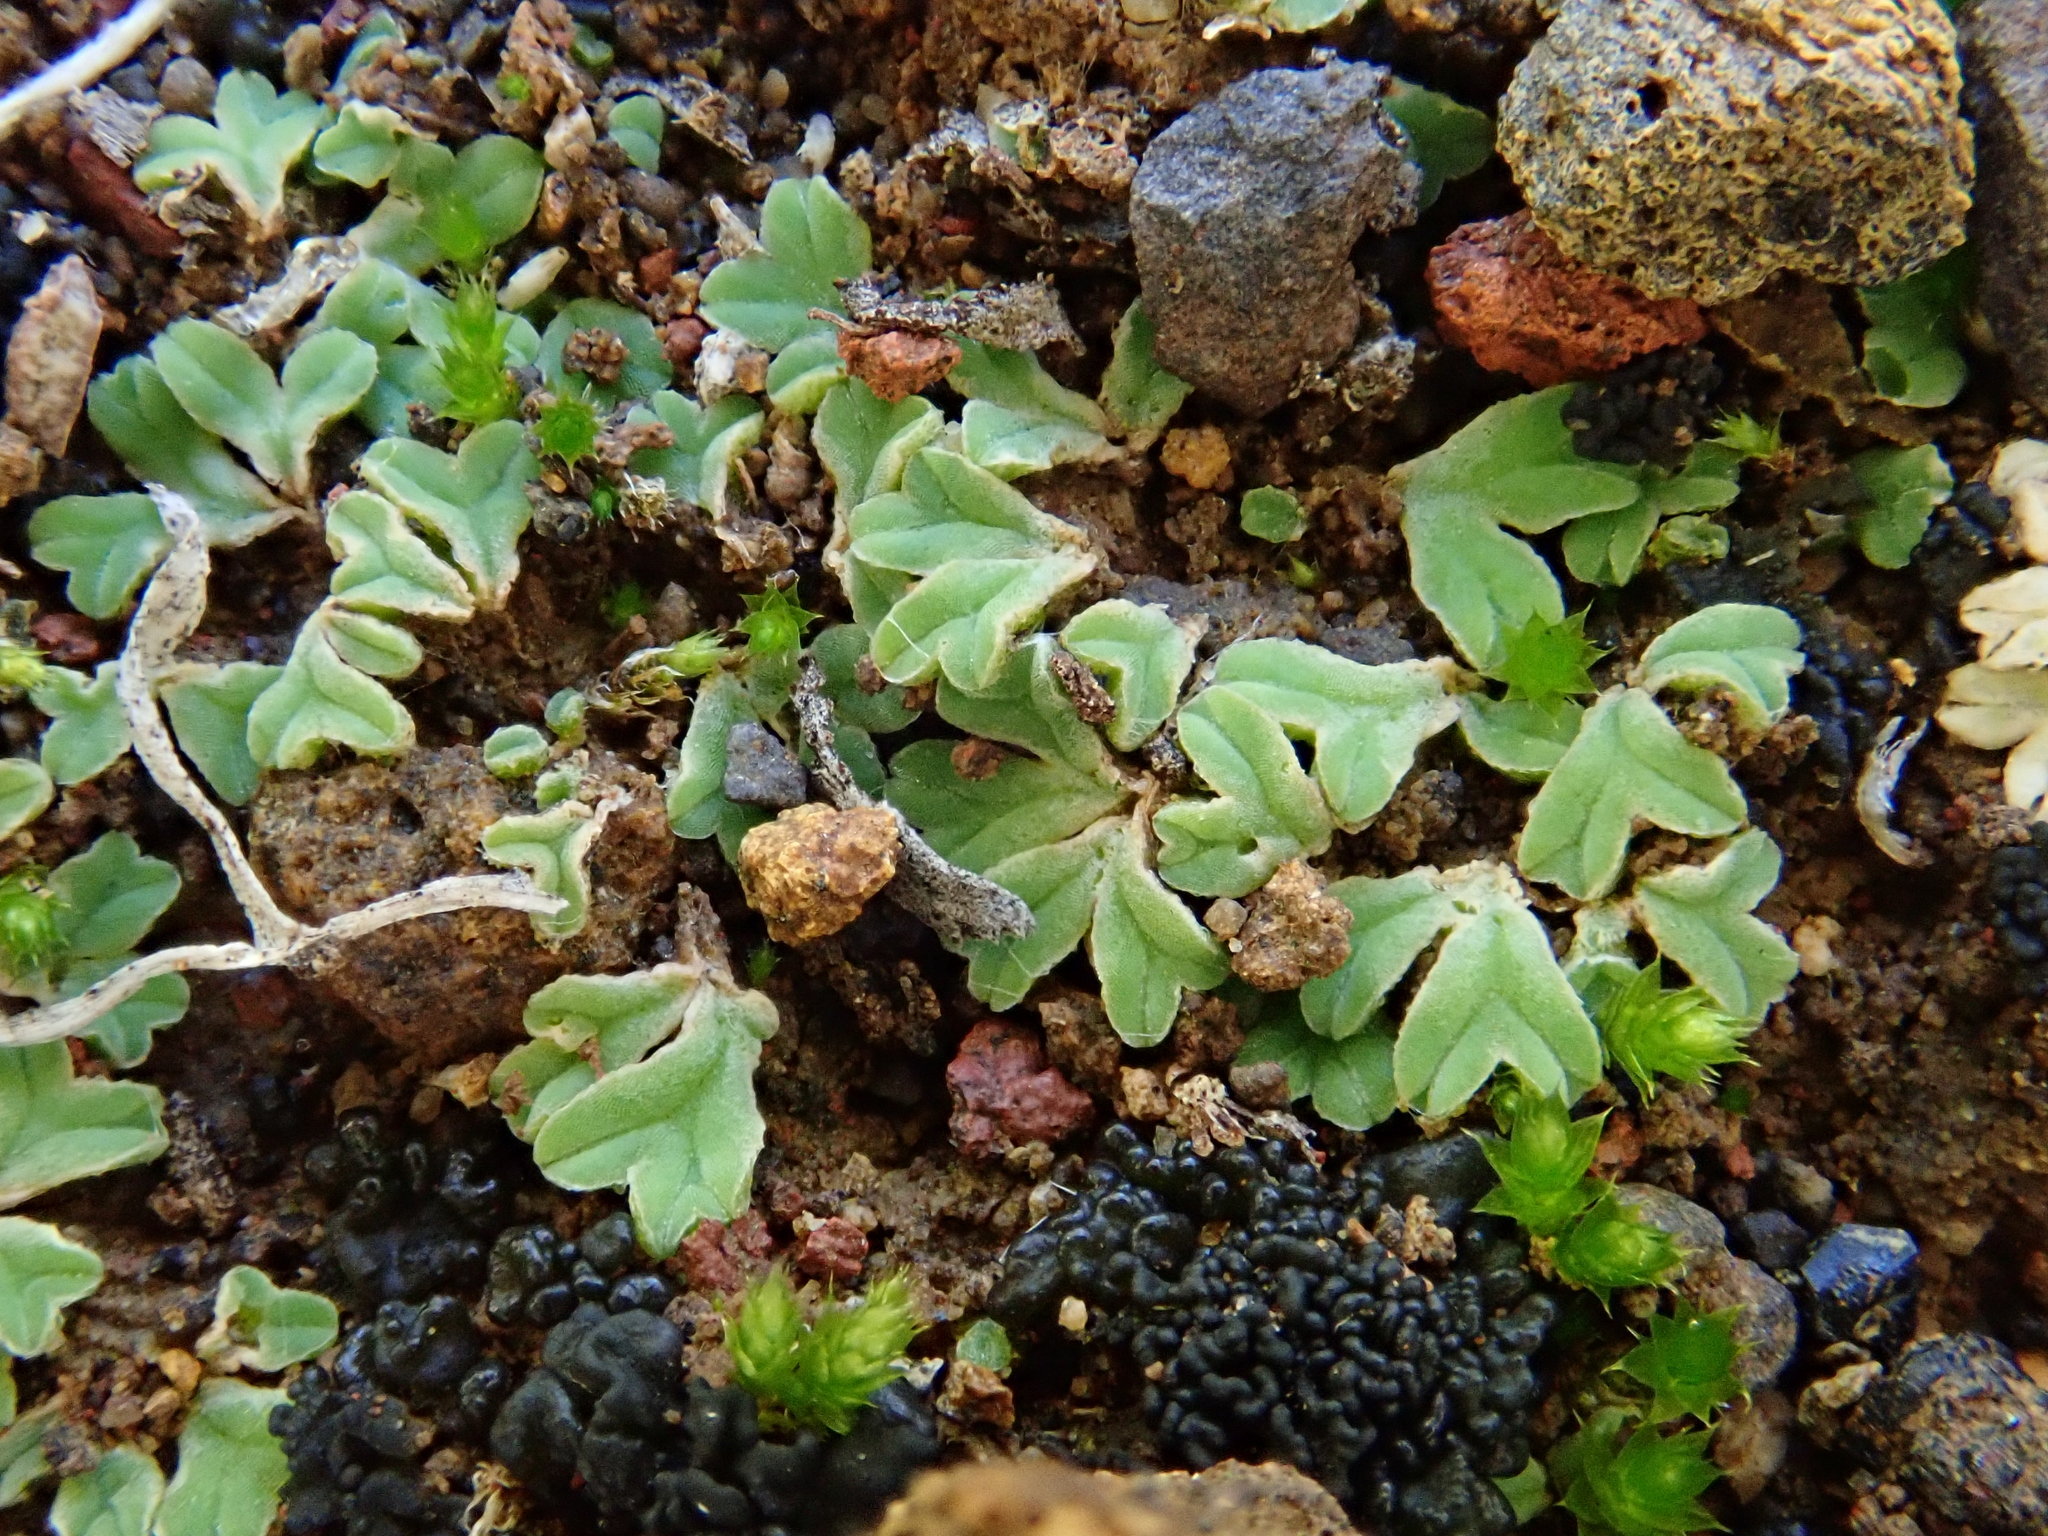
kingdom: Plantae
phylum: Marchantiophyta
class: Marchantiopsida
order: Marchantiales
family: Ricciaceae
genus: Riccia
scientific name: Riccia sorocarpa
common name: Common crystalwort
